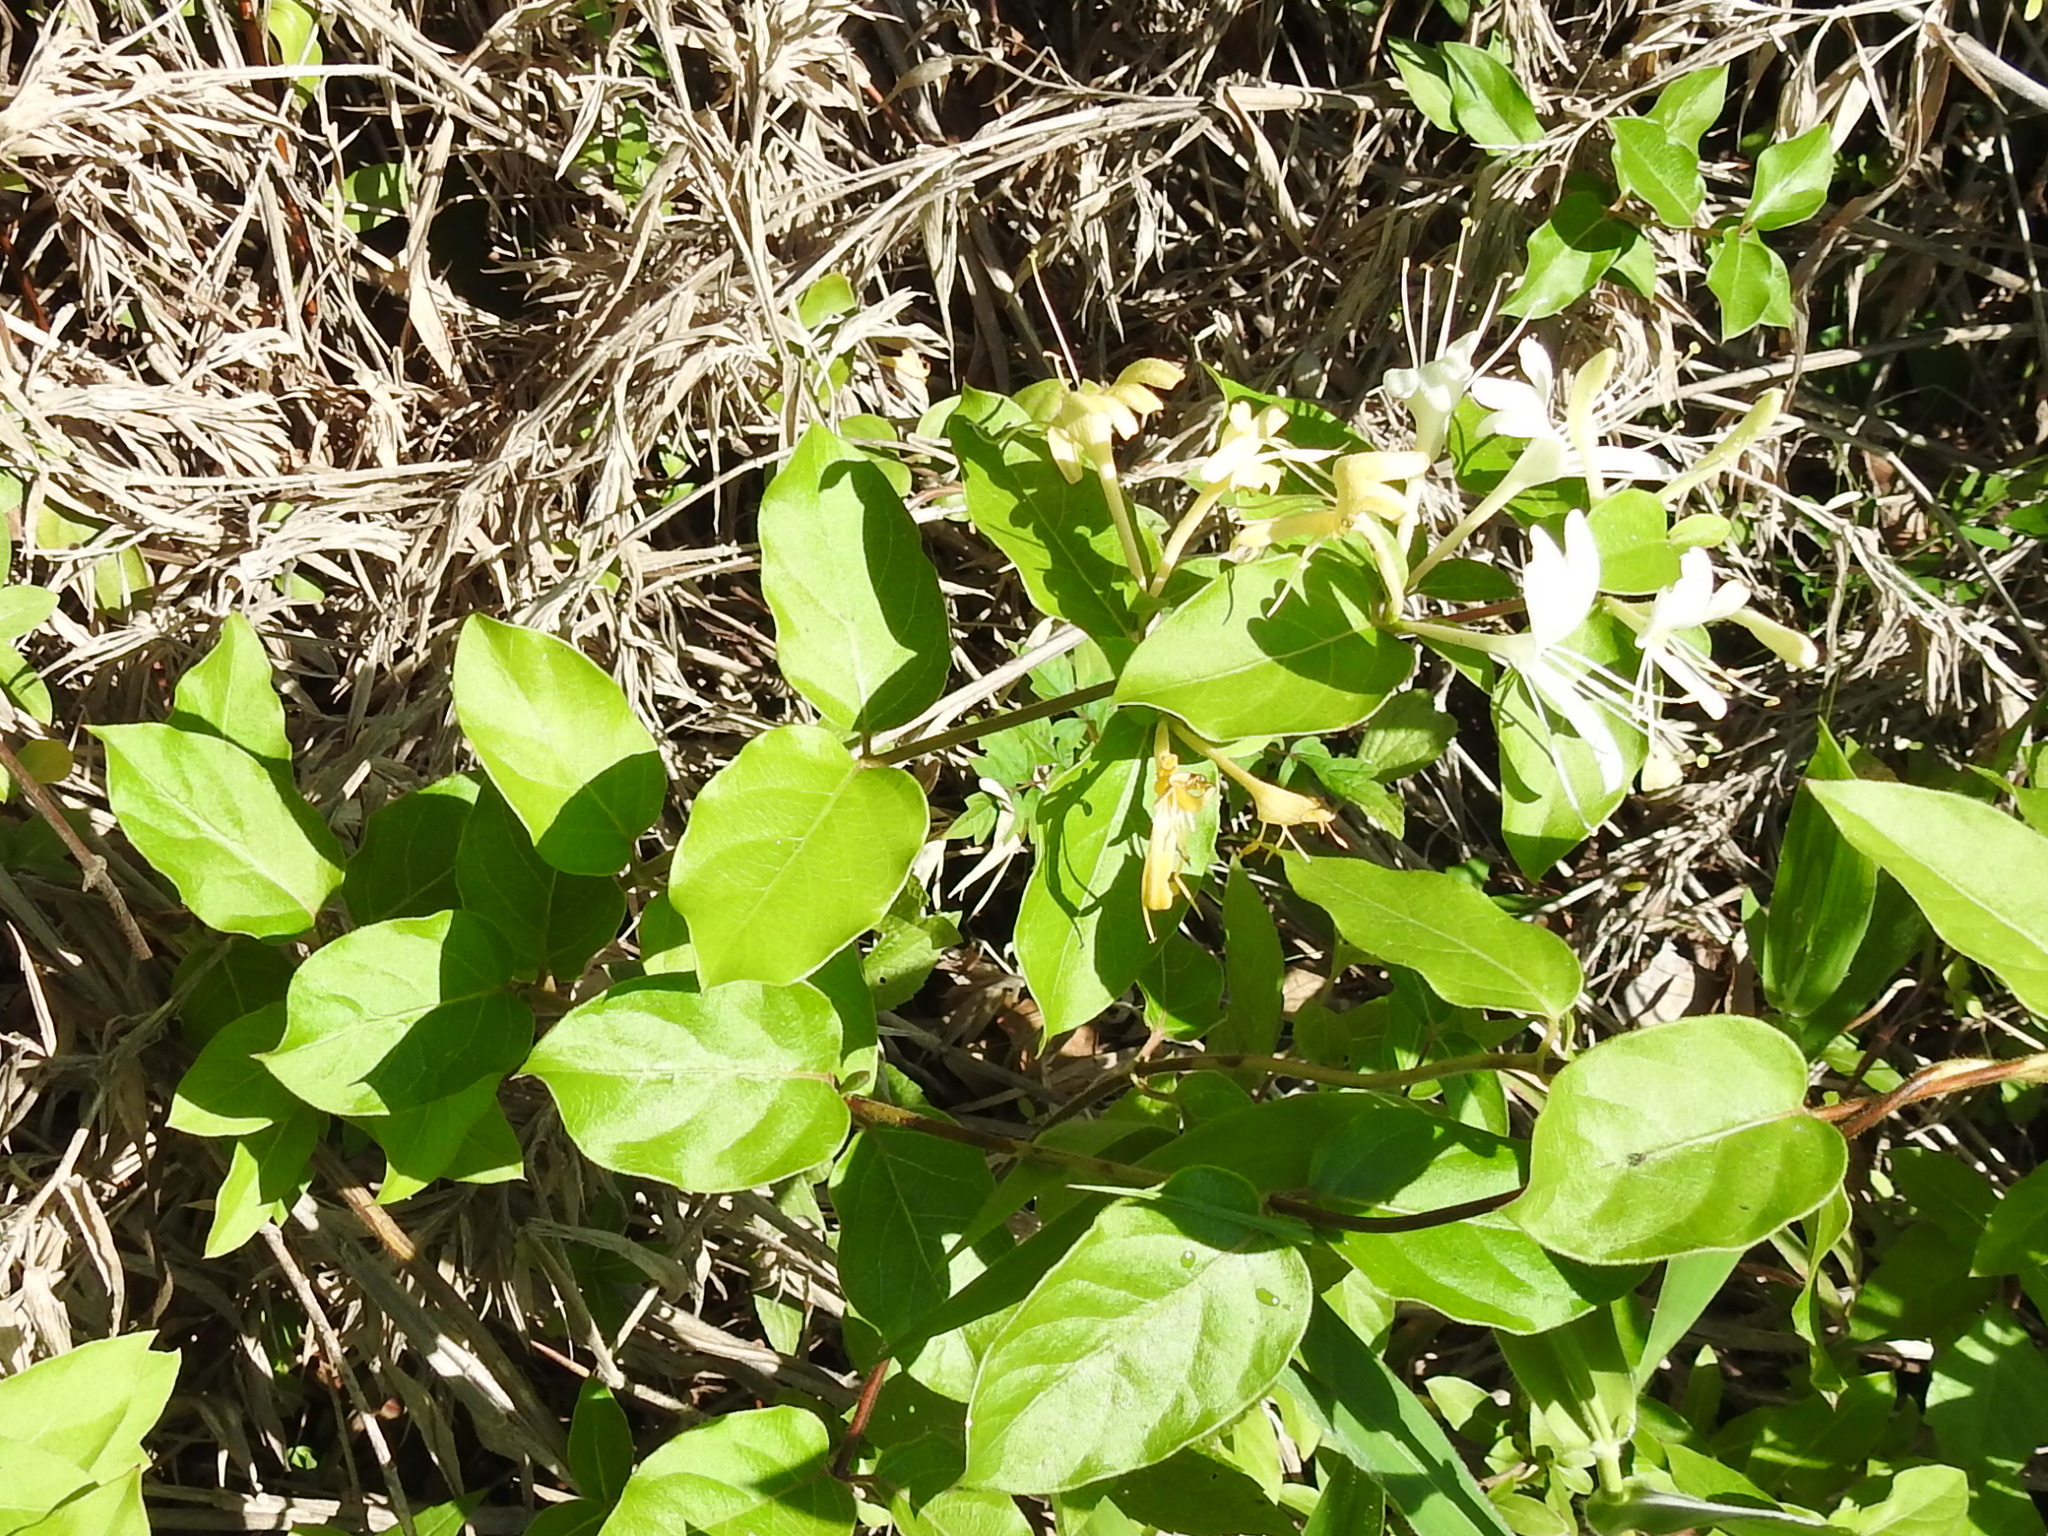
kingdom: Plantae
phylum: Tracheophyta
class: Magnoliopsida
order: Dipsacales
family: Caprifoliaceae
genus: Lonicera
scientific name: Lonicera japonica
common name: Japanese honeysuckle
